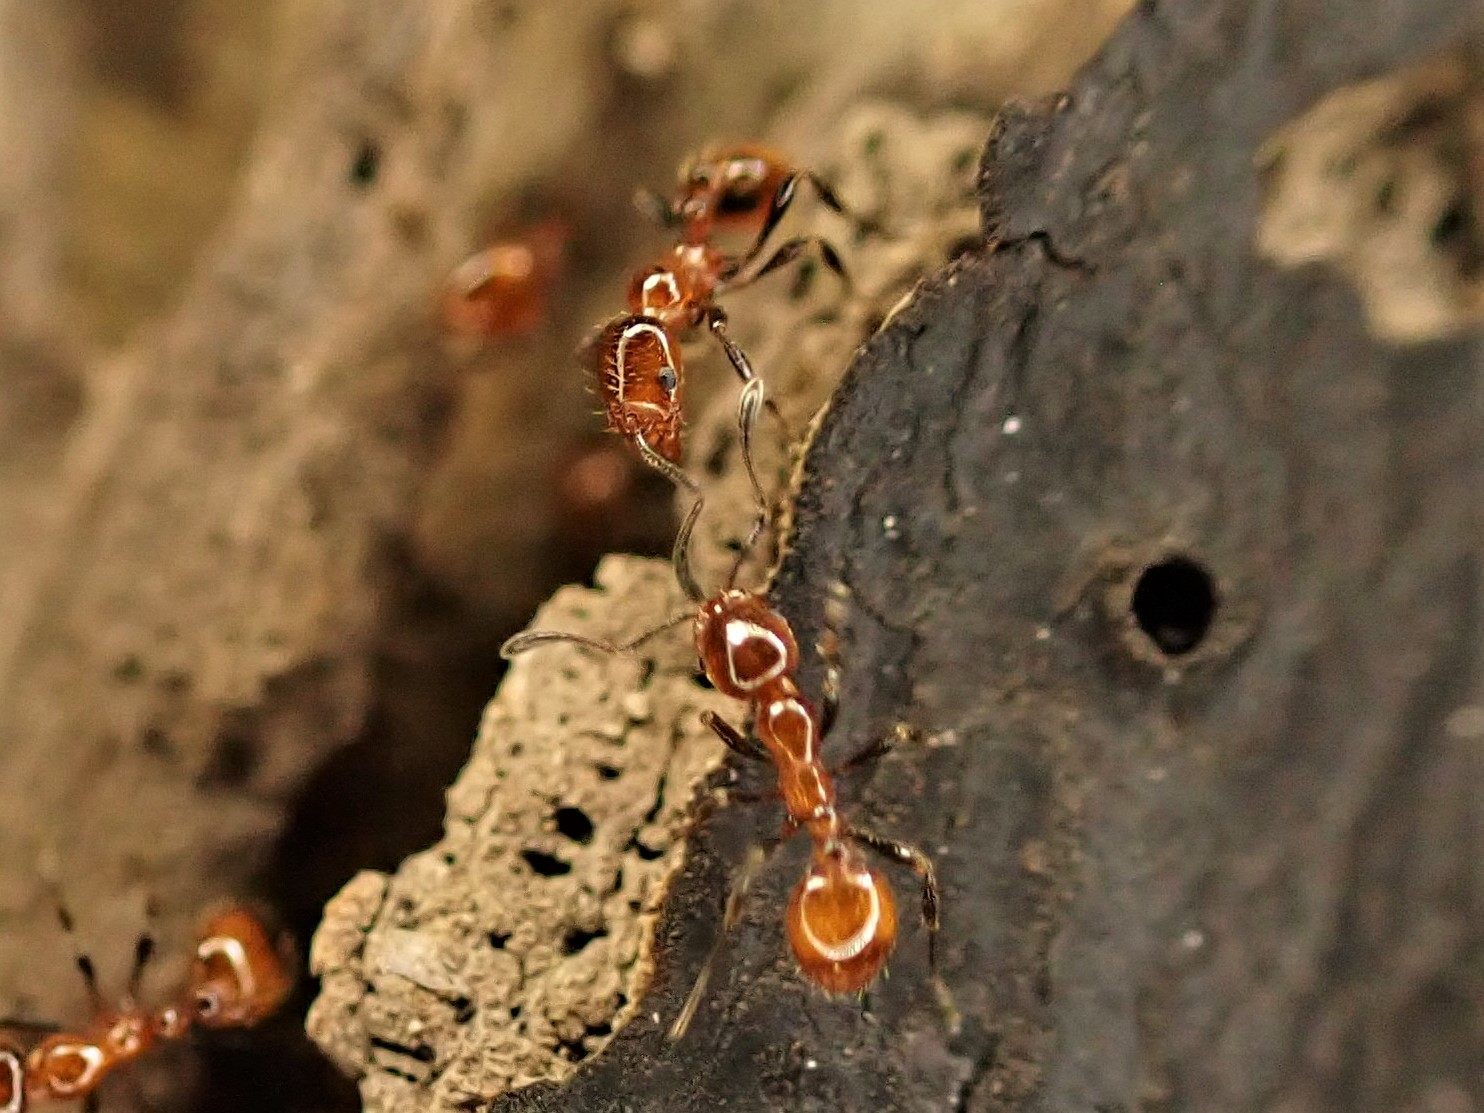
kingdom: Animalia
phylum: Arthropoda
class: Insecta
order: Hymenoptera
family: Formicidae
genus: Huberia
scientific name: Huberia striata
